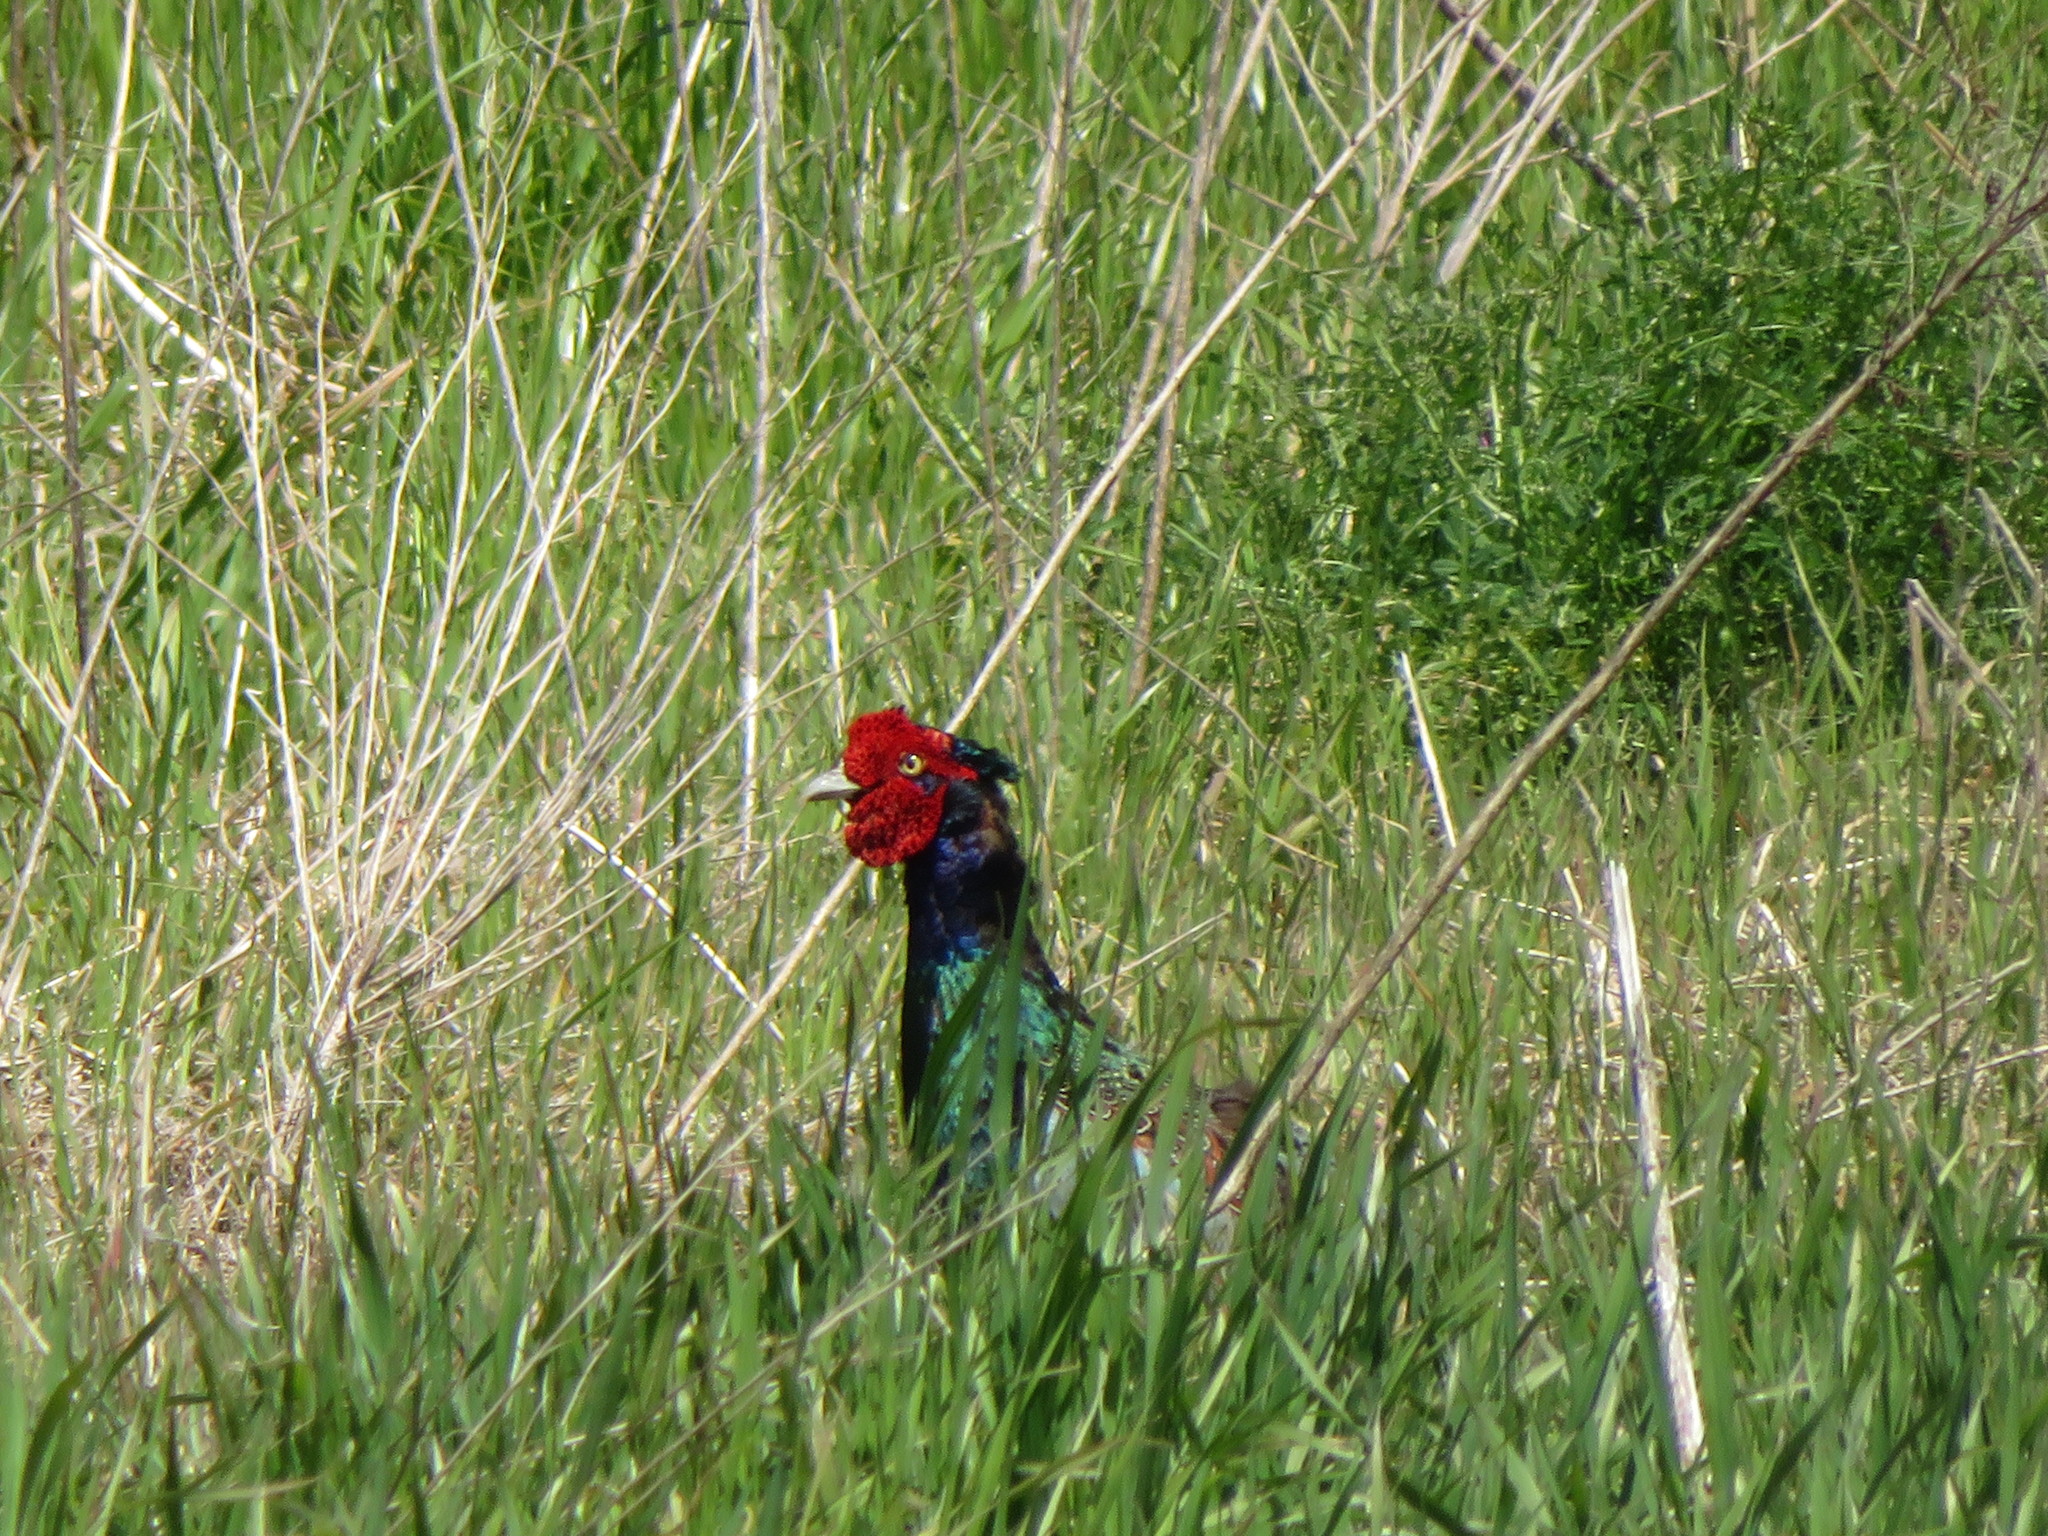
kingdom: Animalia
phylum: Chordata
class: Aves
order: Galliformes
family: Phasianidae
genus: Phasianus
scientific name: Phasianus versicolor
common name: Green pheasant
